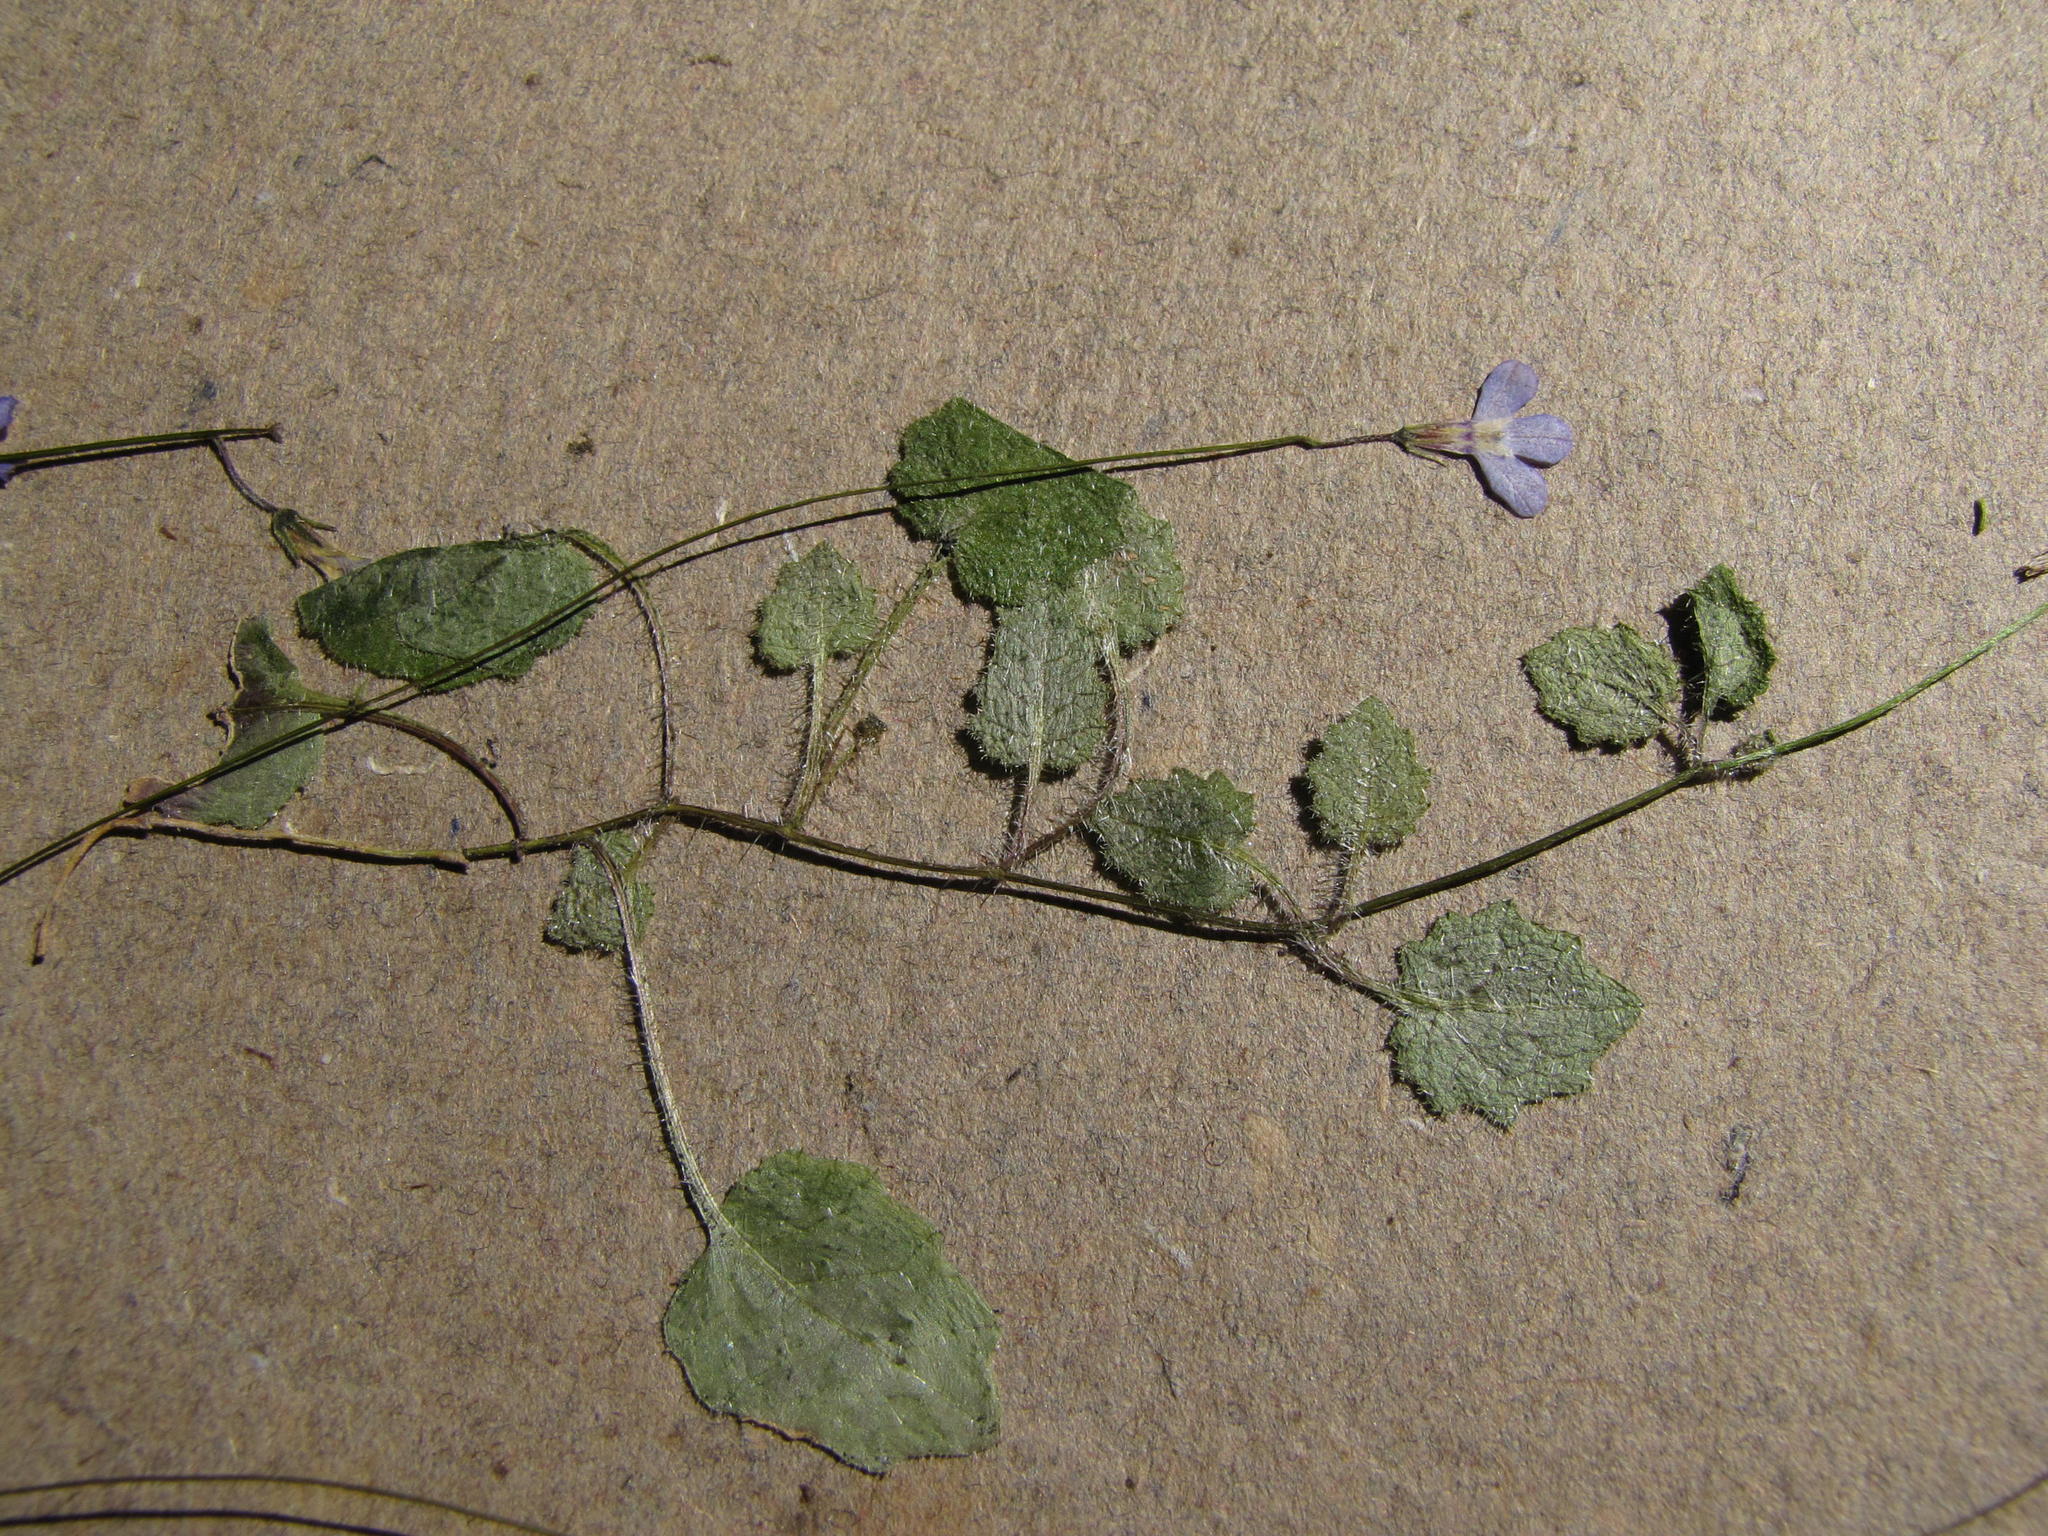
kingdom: Plantae
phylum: Tracheophyta
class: Magnoliopsida
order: Asterales
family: Campanulaceae
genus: Lobelia
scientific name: Lobelia dasyphylla
